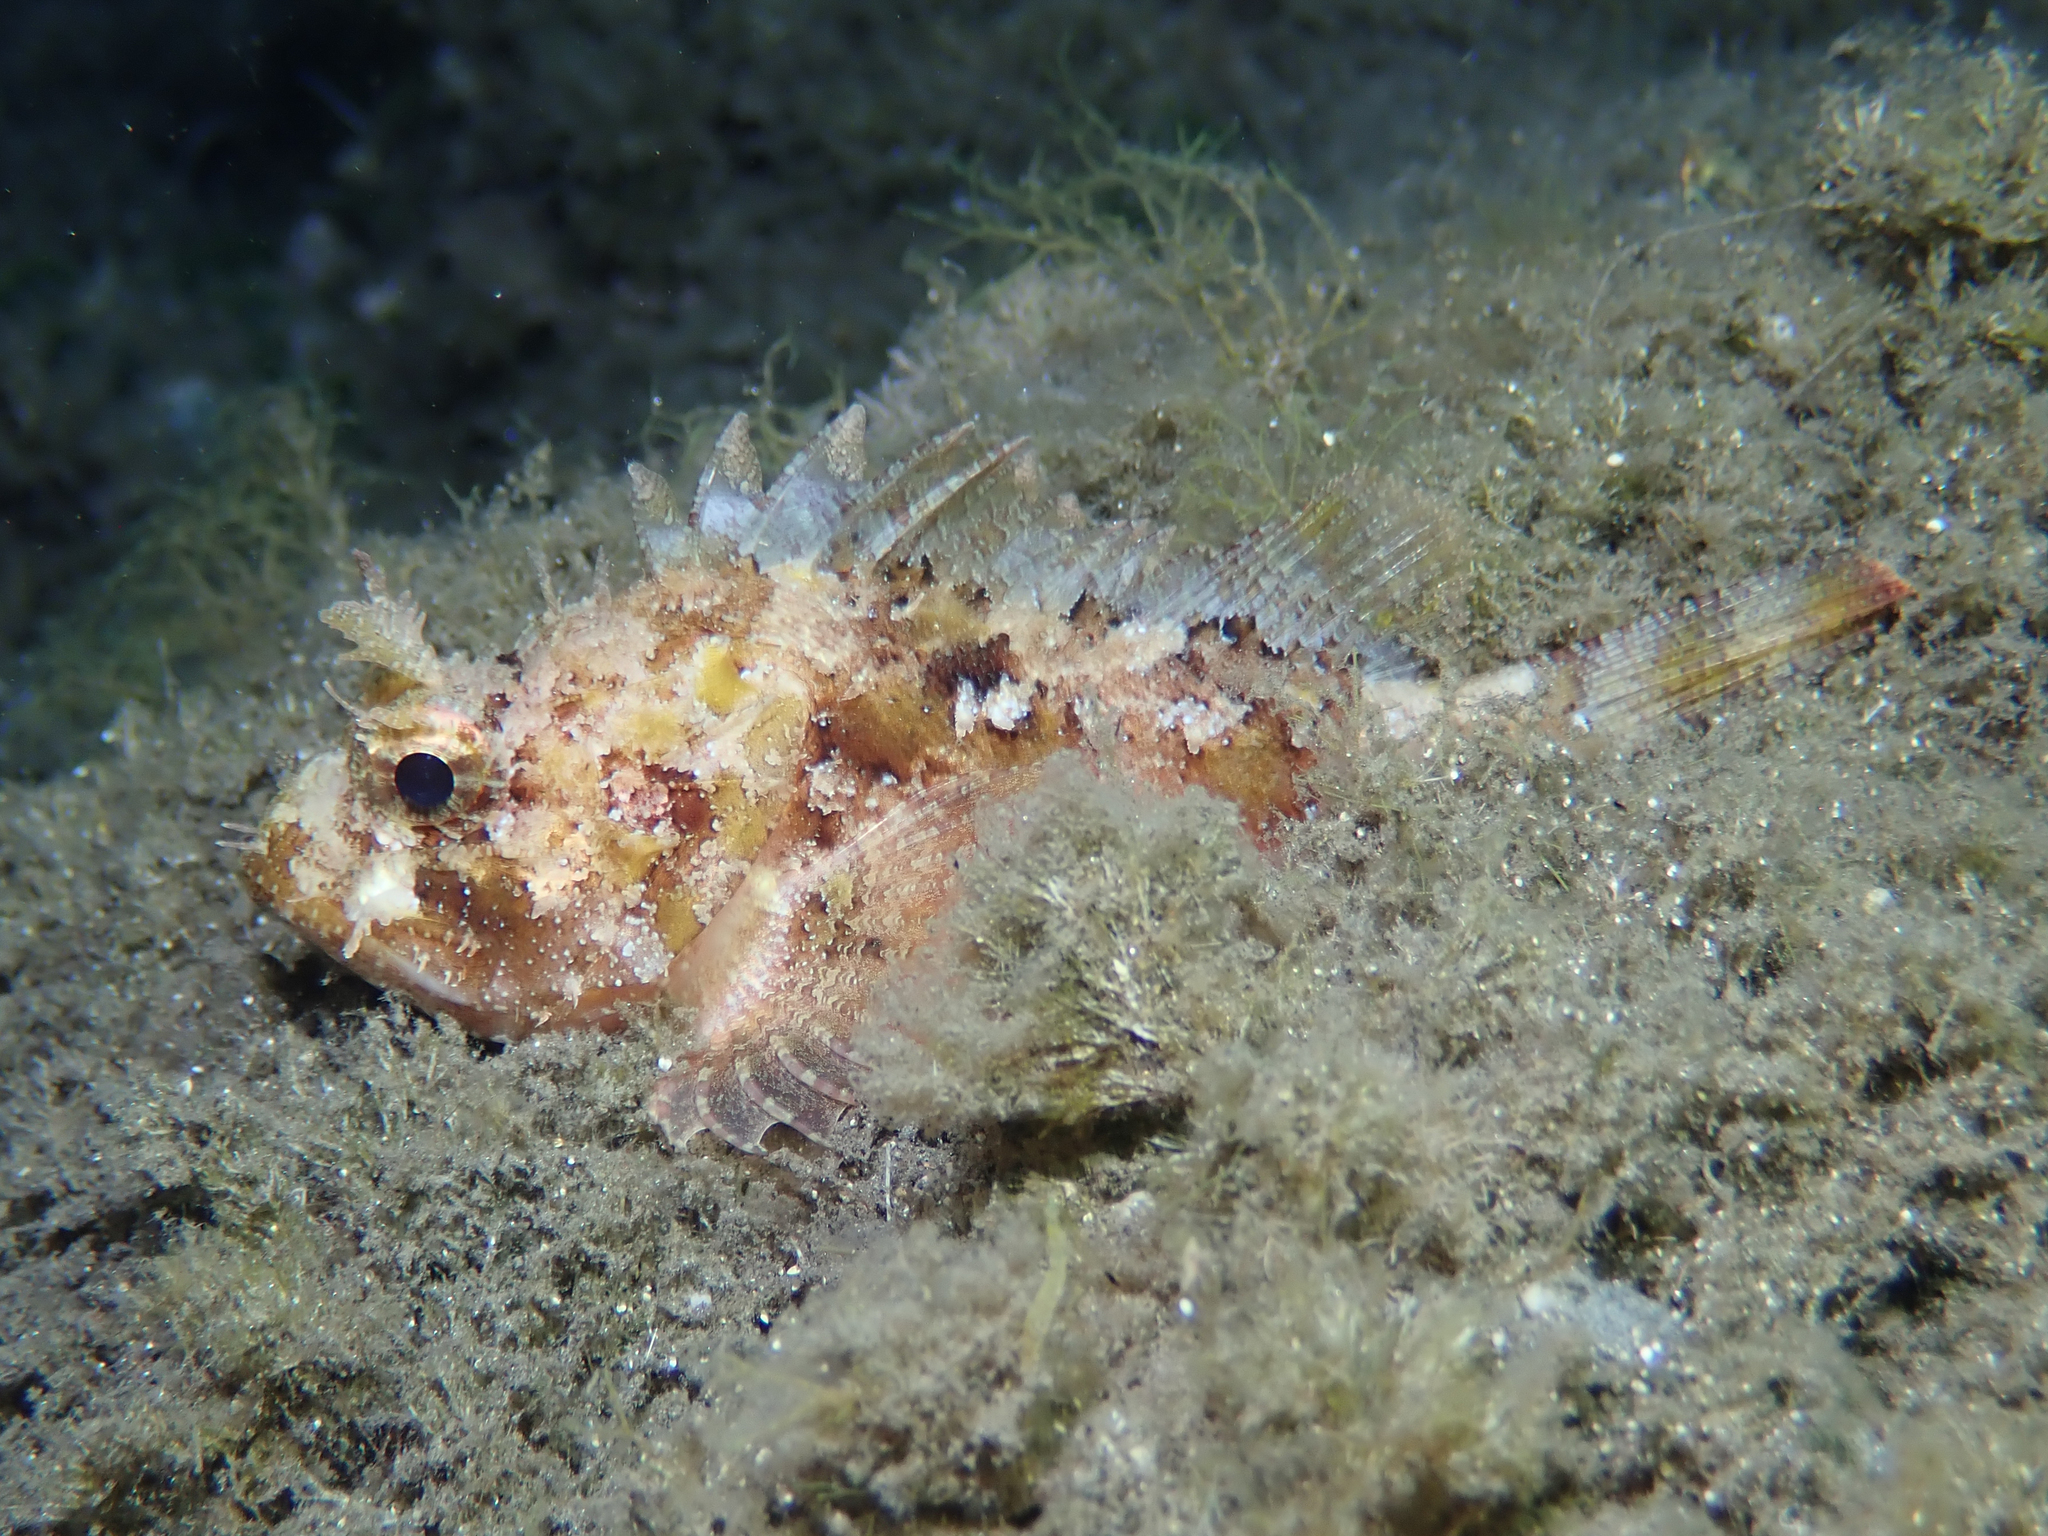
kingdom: Animalia
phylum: Chordata
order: Scorpaeniformes
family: Scorpaenidae
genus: Scorpaena
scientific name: Scorpaena porcus
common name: Black scorpionfish
